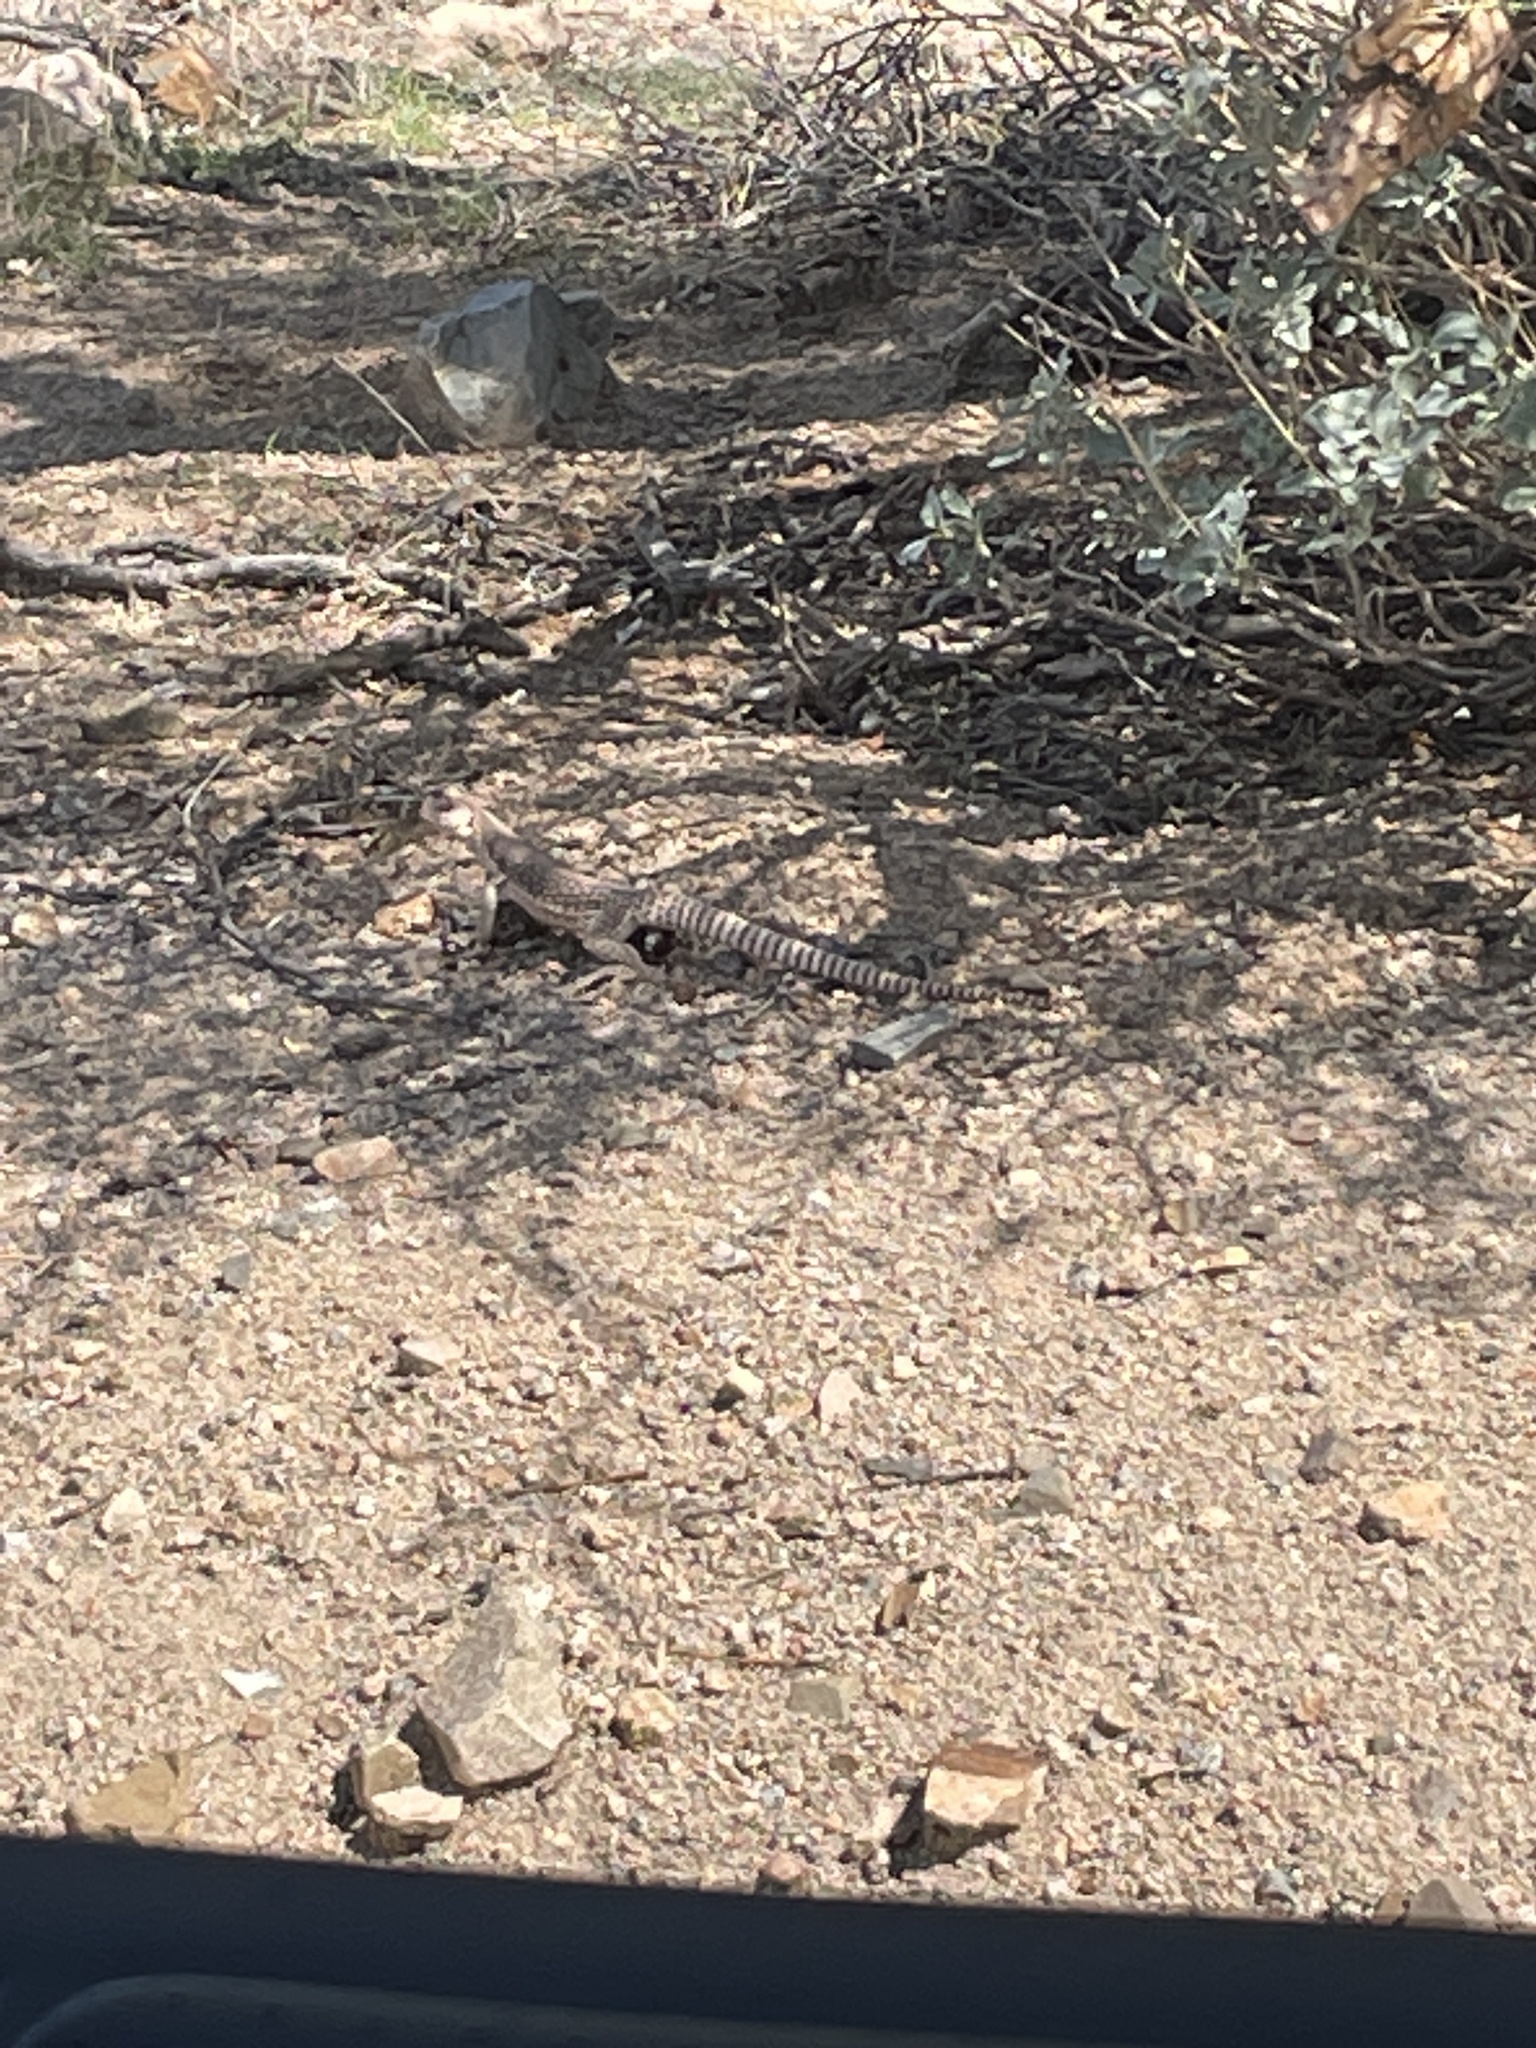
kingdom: Animalia
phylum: Chordata
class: Squamata
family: Iguanidae
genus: Dipsosaurus
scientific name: Dipsosaurus dorsalis
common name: Desert iguana
